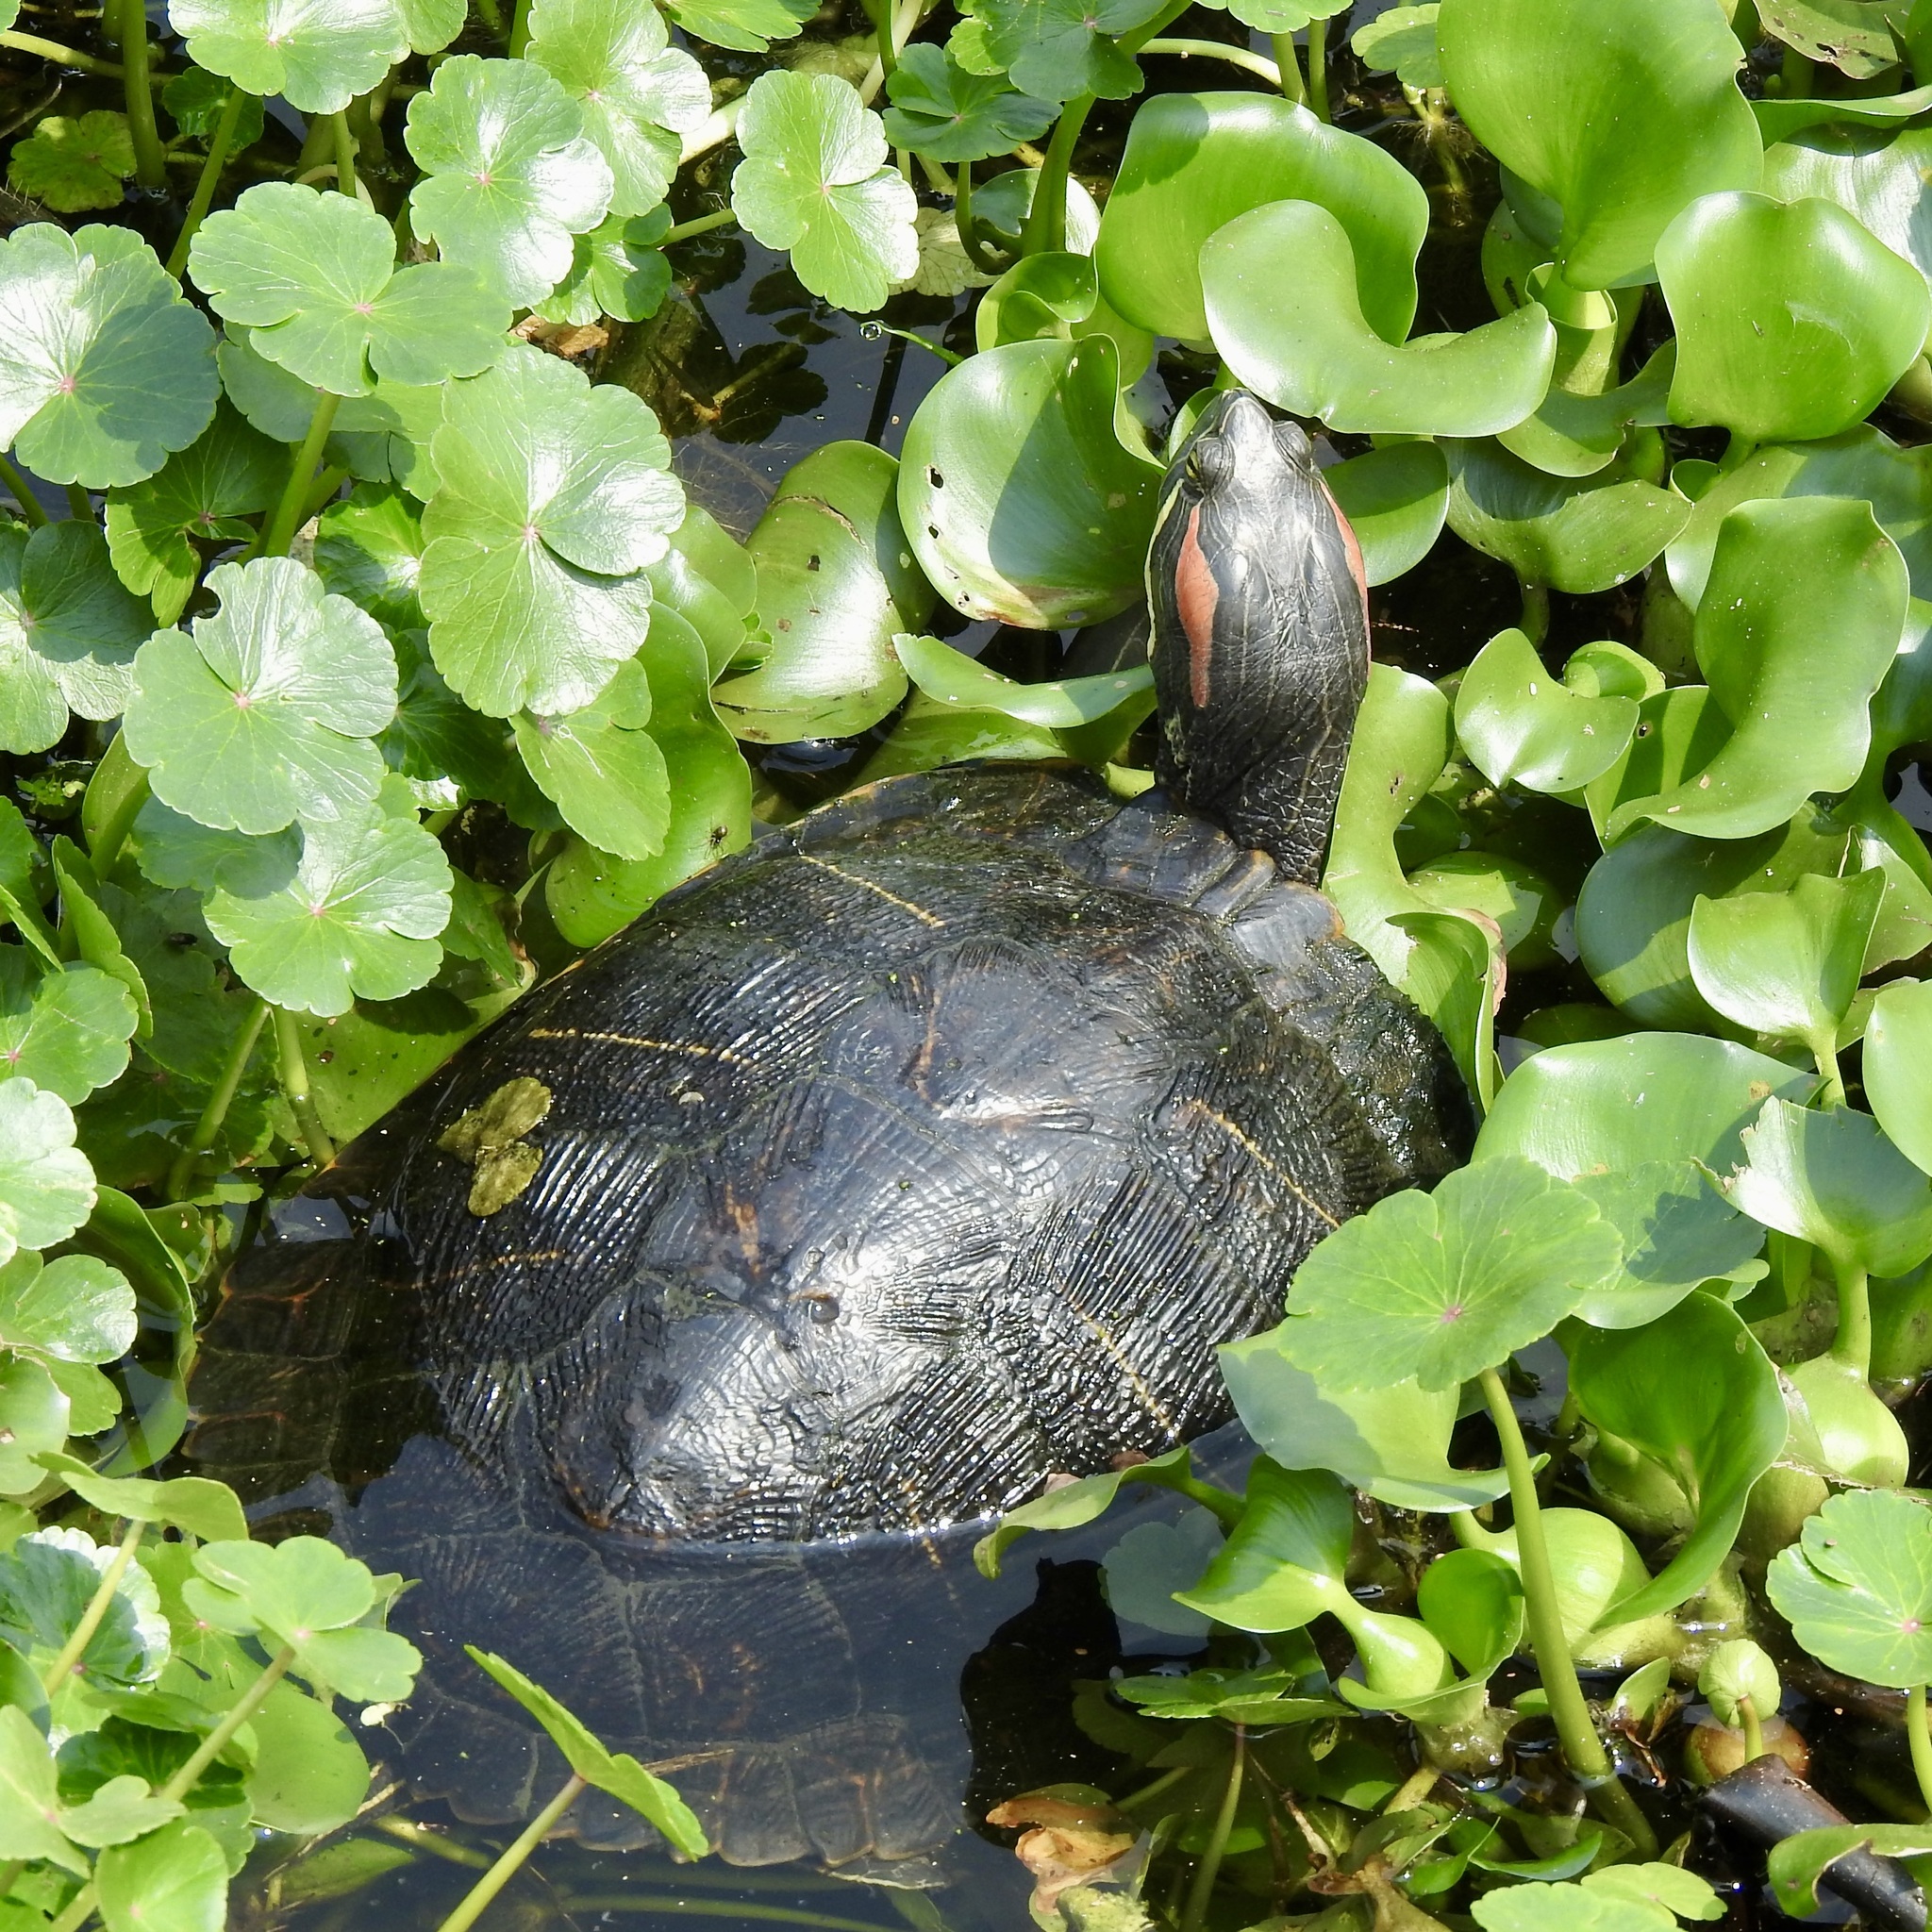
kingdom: Animalia
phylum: Chordata
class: Testudines
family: Emydidae
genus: Trachemys
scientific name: Trachemys scripta
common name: Slider
